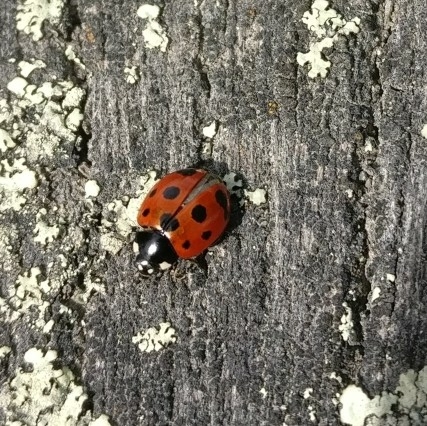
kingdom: Animalia
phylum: Arthropoda
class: Insecta
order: Coleoptera
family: Coccinellidae
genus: Coccinella
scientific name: Coccinella undecimpunctata
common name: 11-spot ladybird
